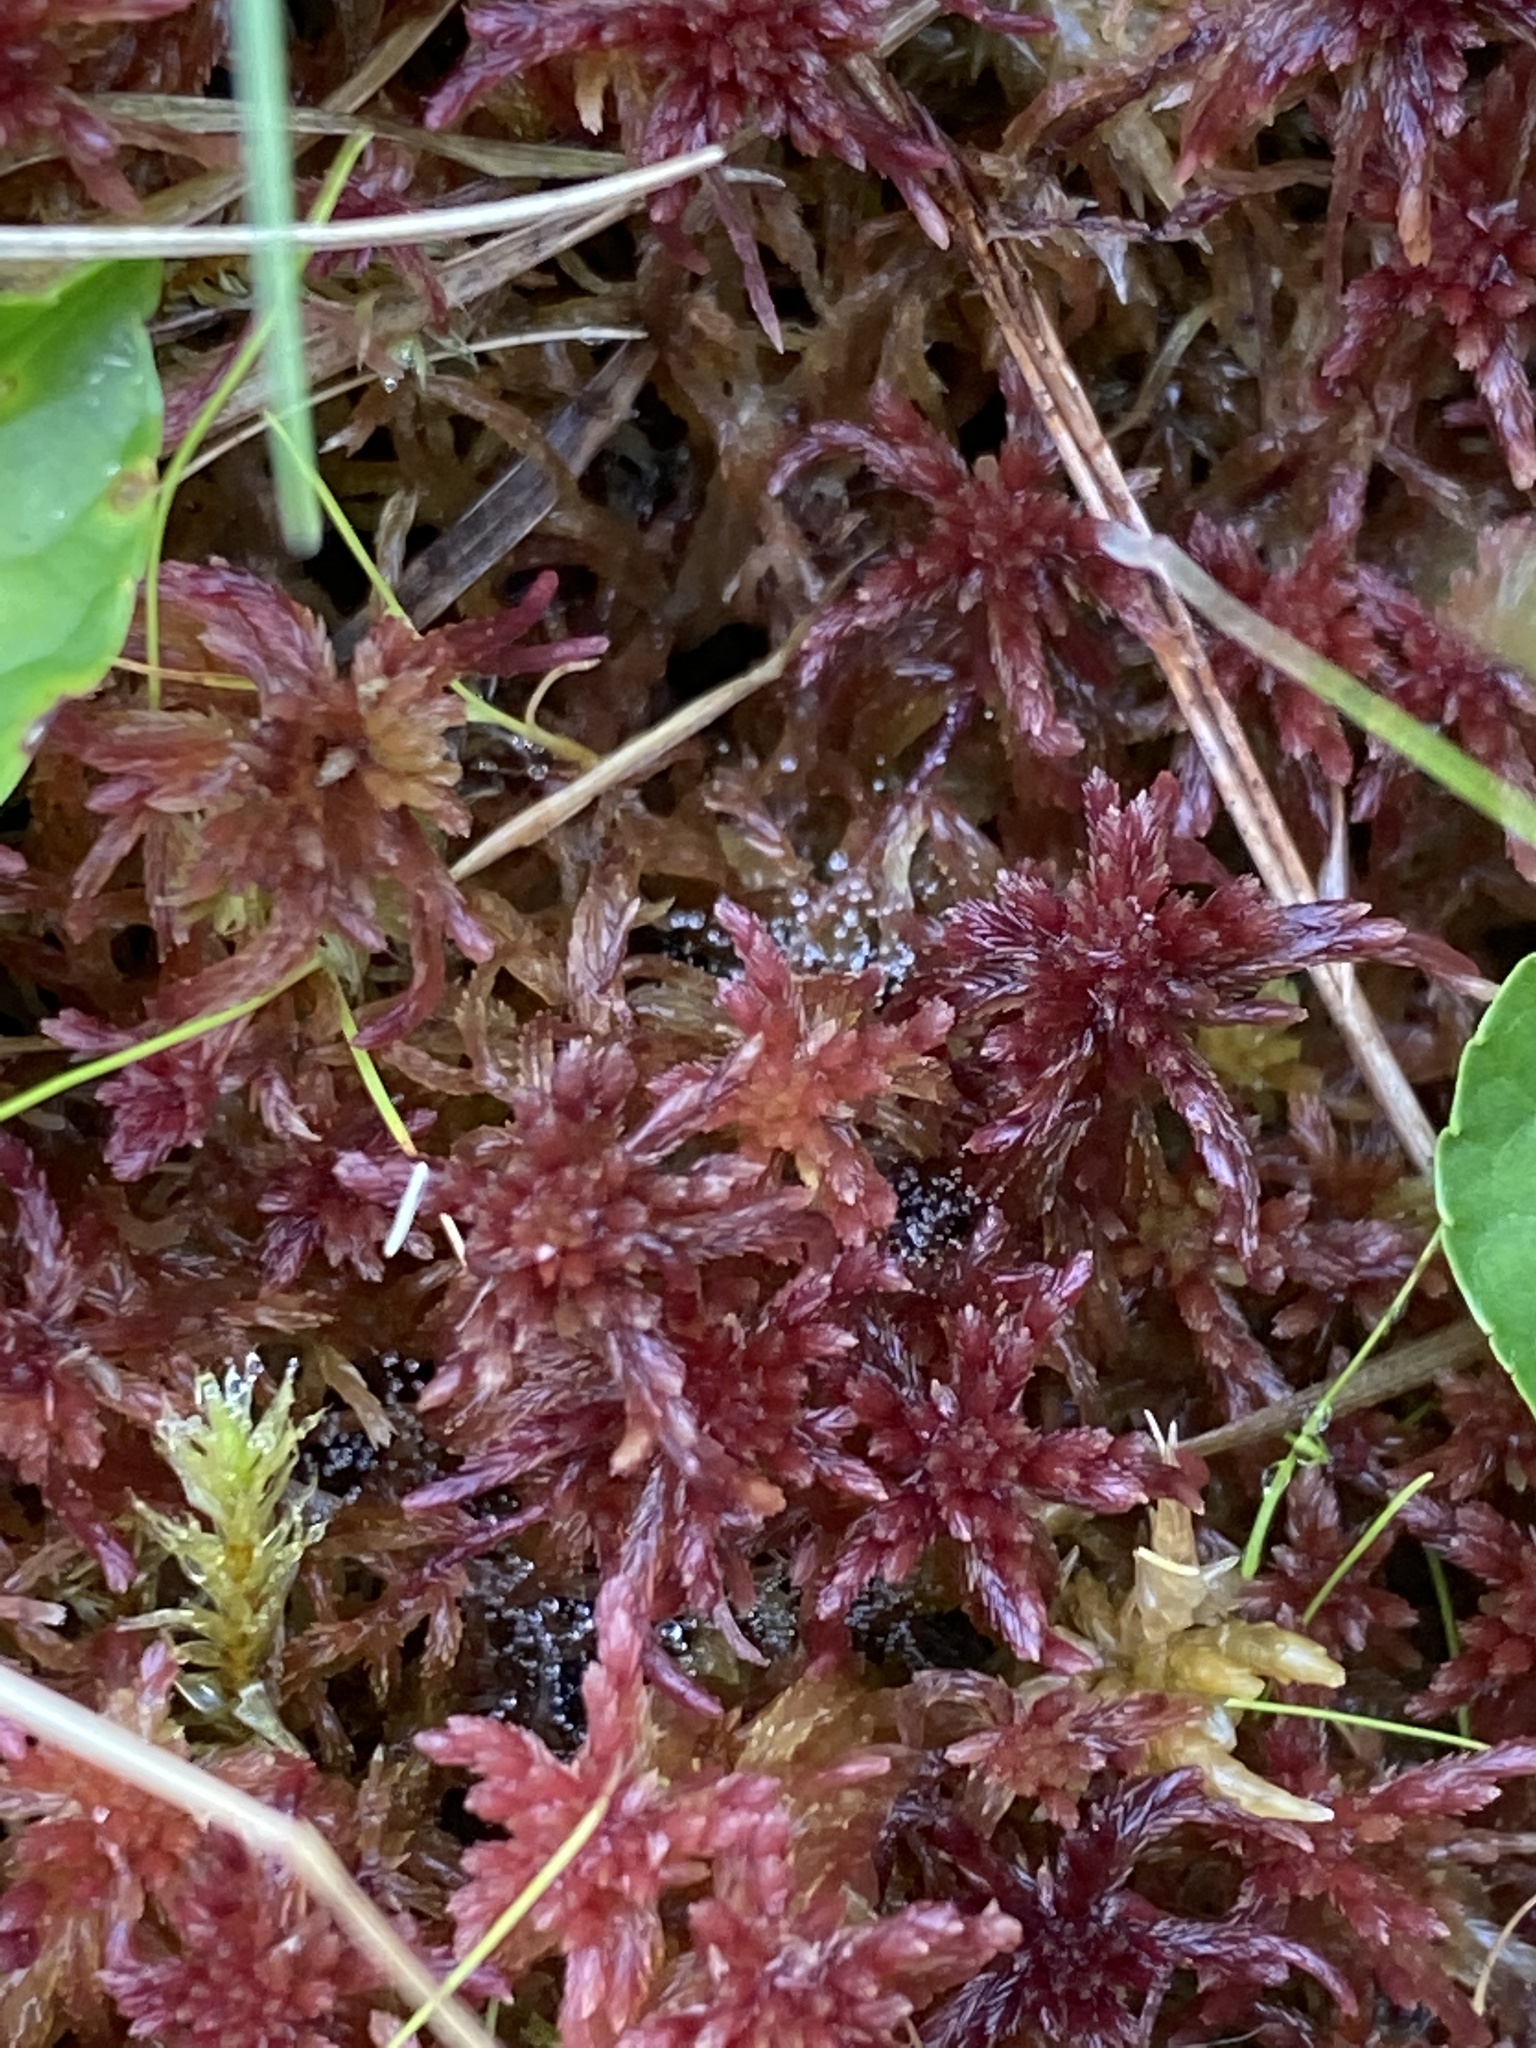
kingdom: Plantae
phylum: Bryophyta
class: Sphagnopsida
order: Sphagnales
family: Sphagnaceae
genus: Sphagnum
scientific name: Sphagnum bartlettianum
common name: Bartlett's peatmoss
